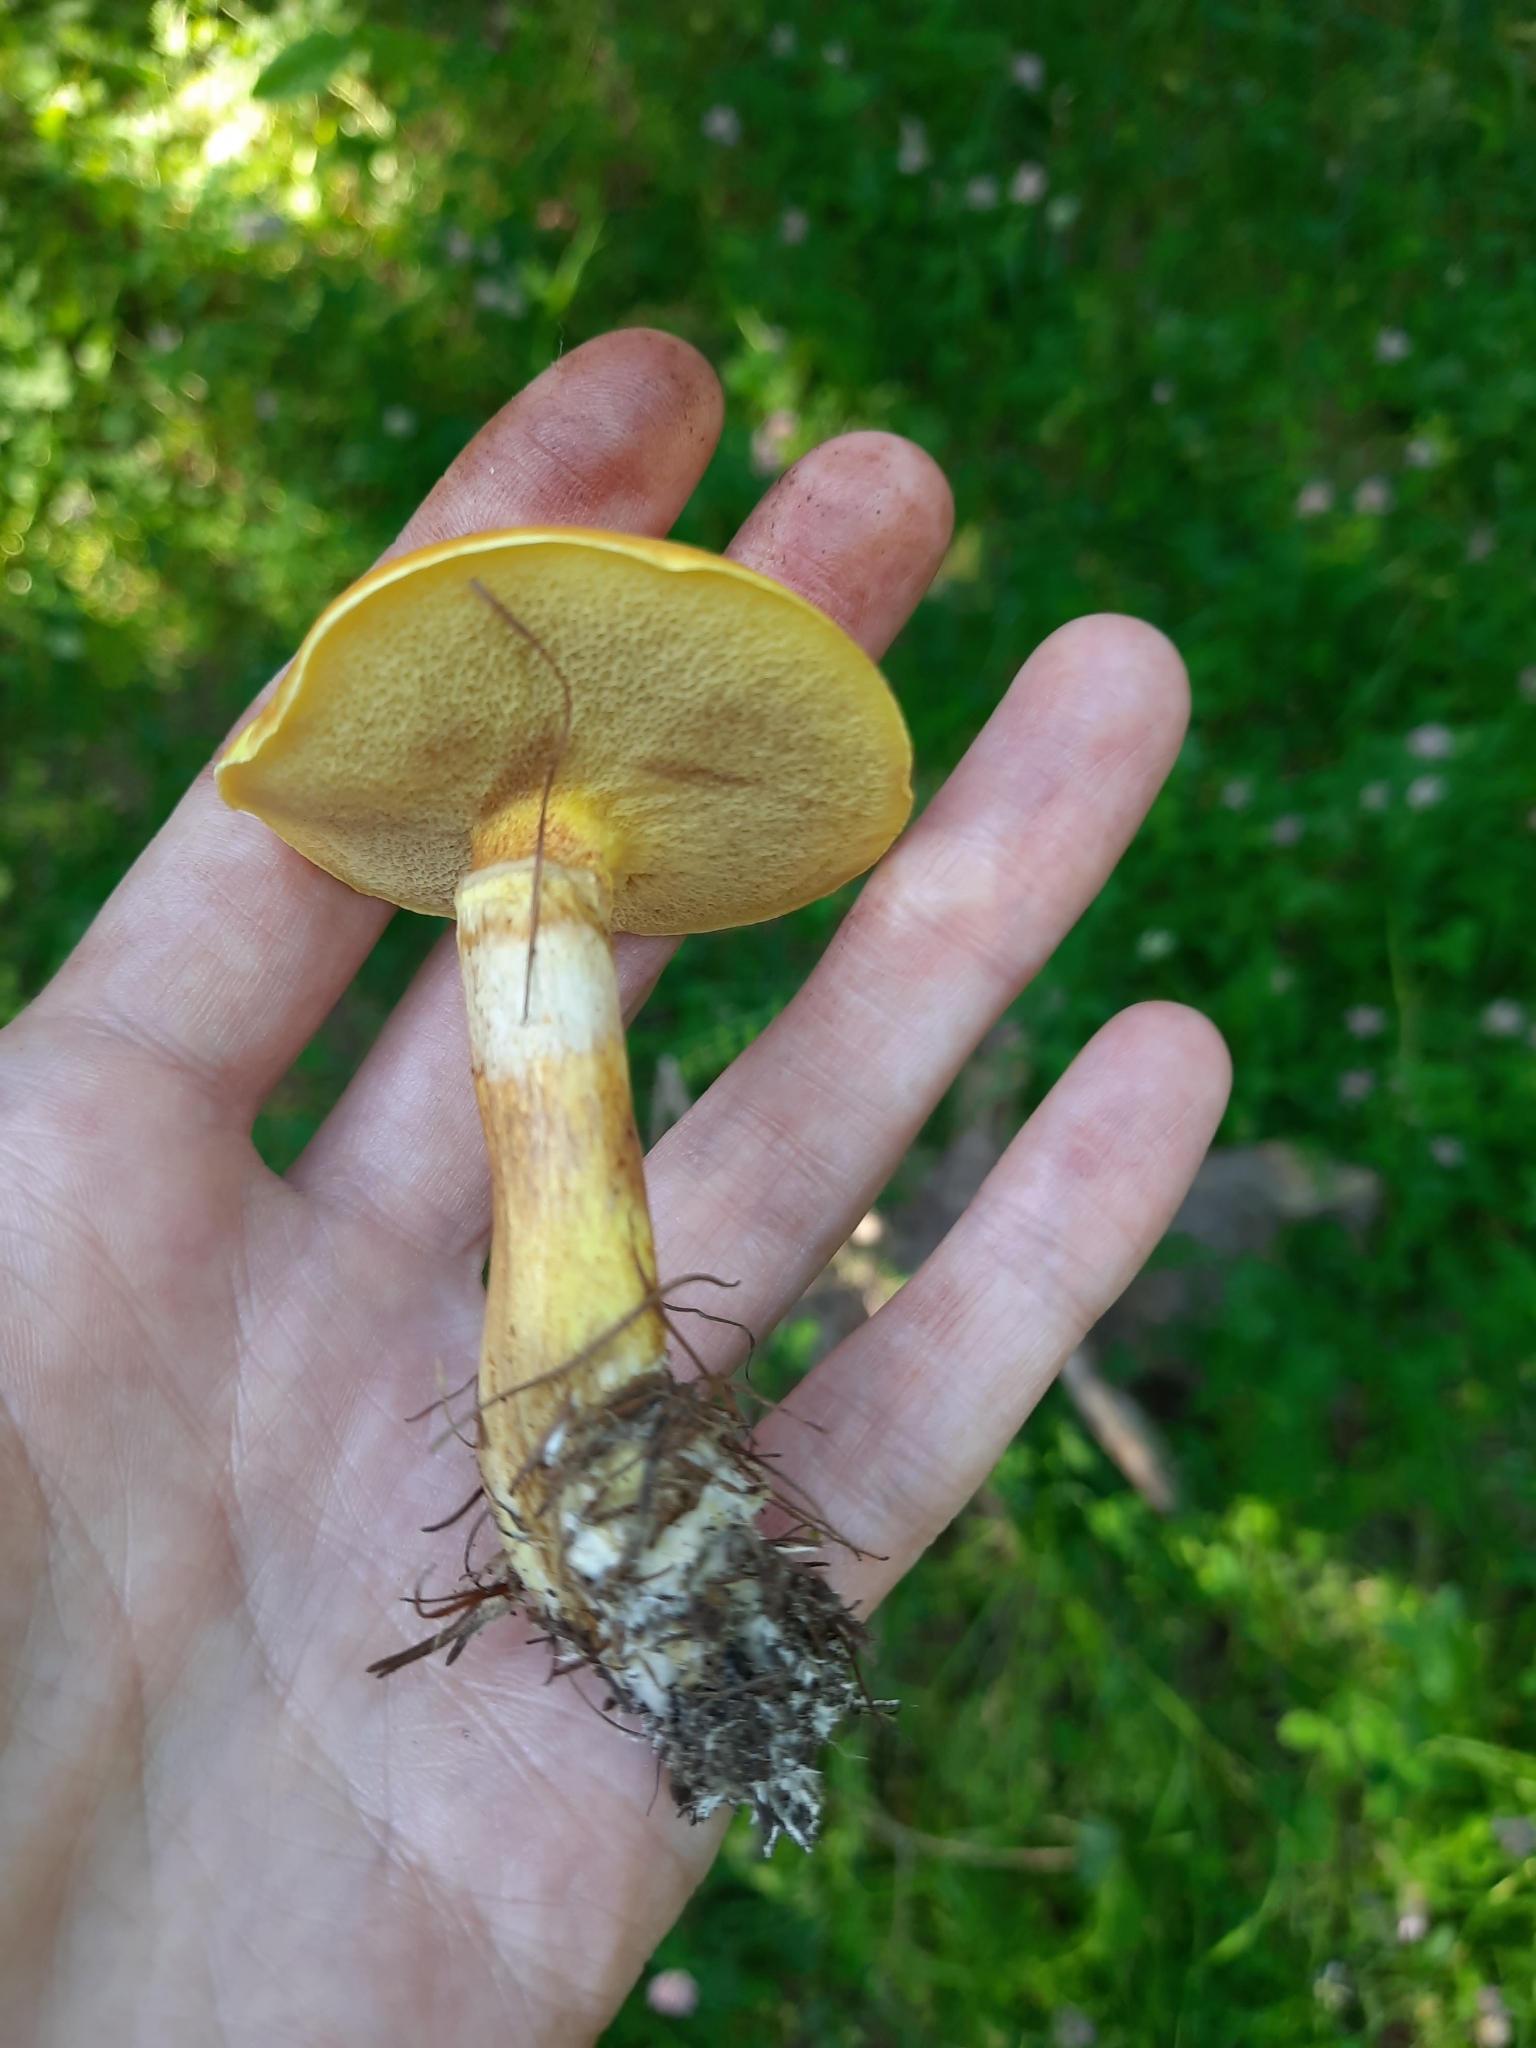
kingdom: Fungi
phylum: Basidiomycota
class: Agaricomycetes
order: Boletales
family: Suillaceae
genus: Suillus
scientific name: Suillus grevillei
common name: Larch bolete
